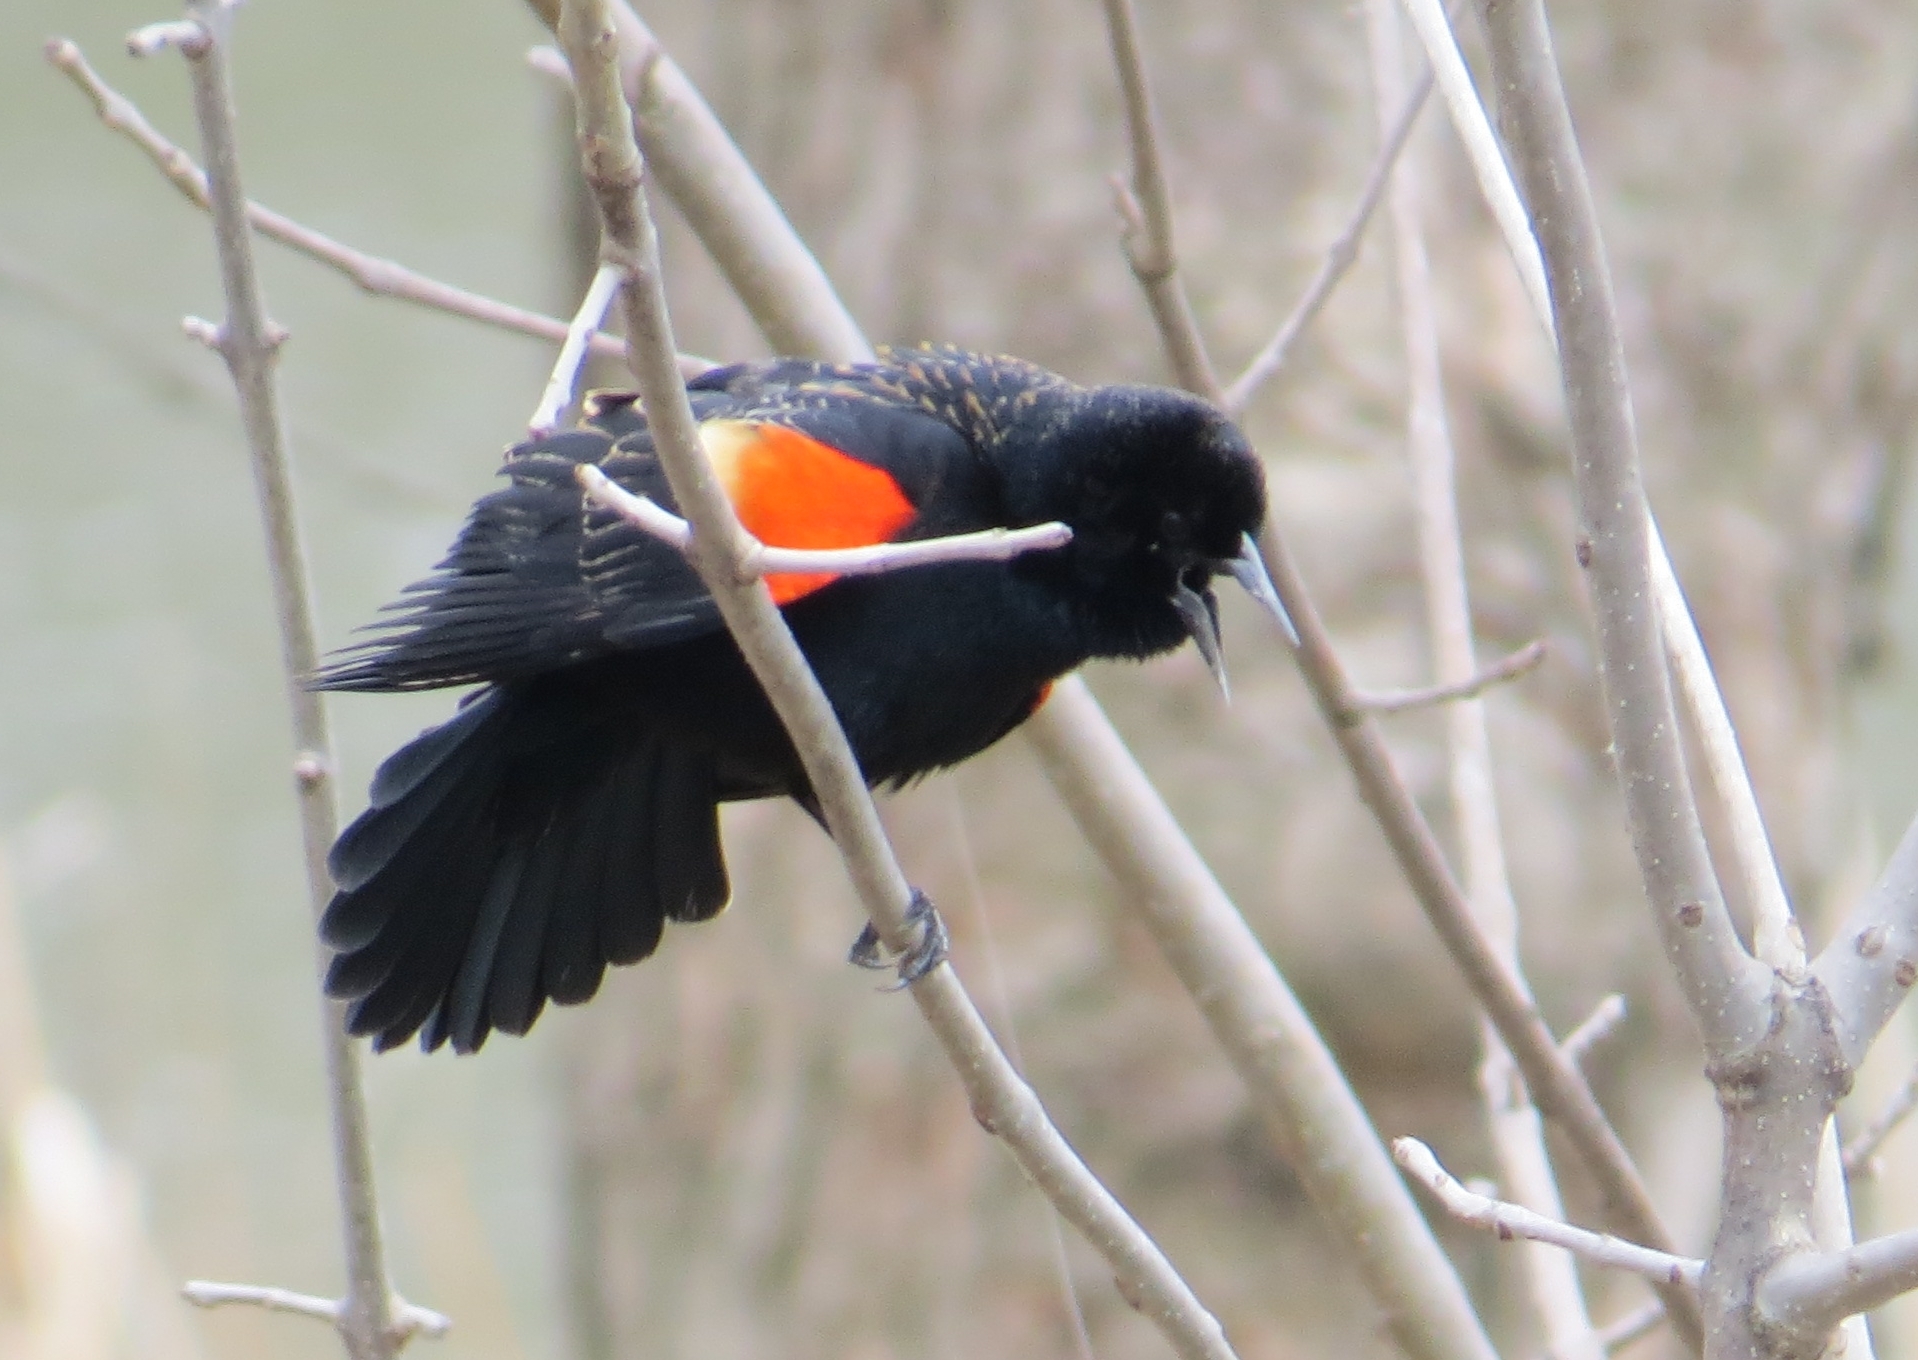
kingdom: Animalia
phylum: Chordata
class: Aves
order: Passeriformes
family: Icteridae
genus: Agelaius
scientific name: Agelaius phoeniceus
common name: Red-winged blackbird
